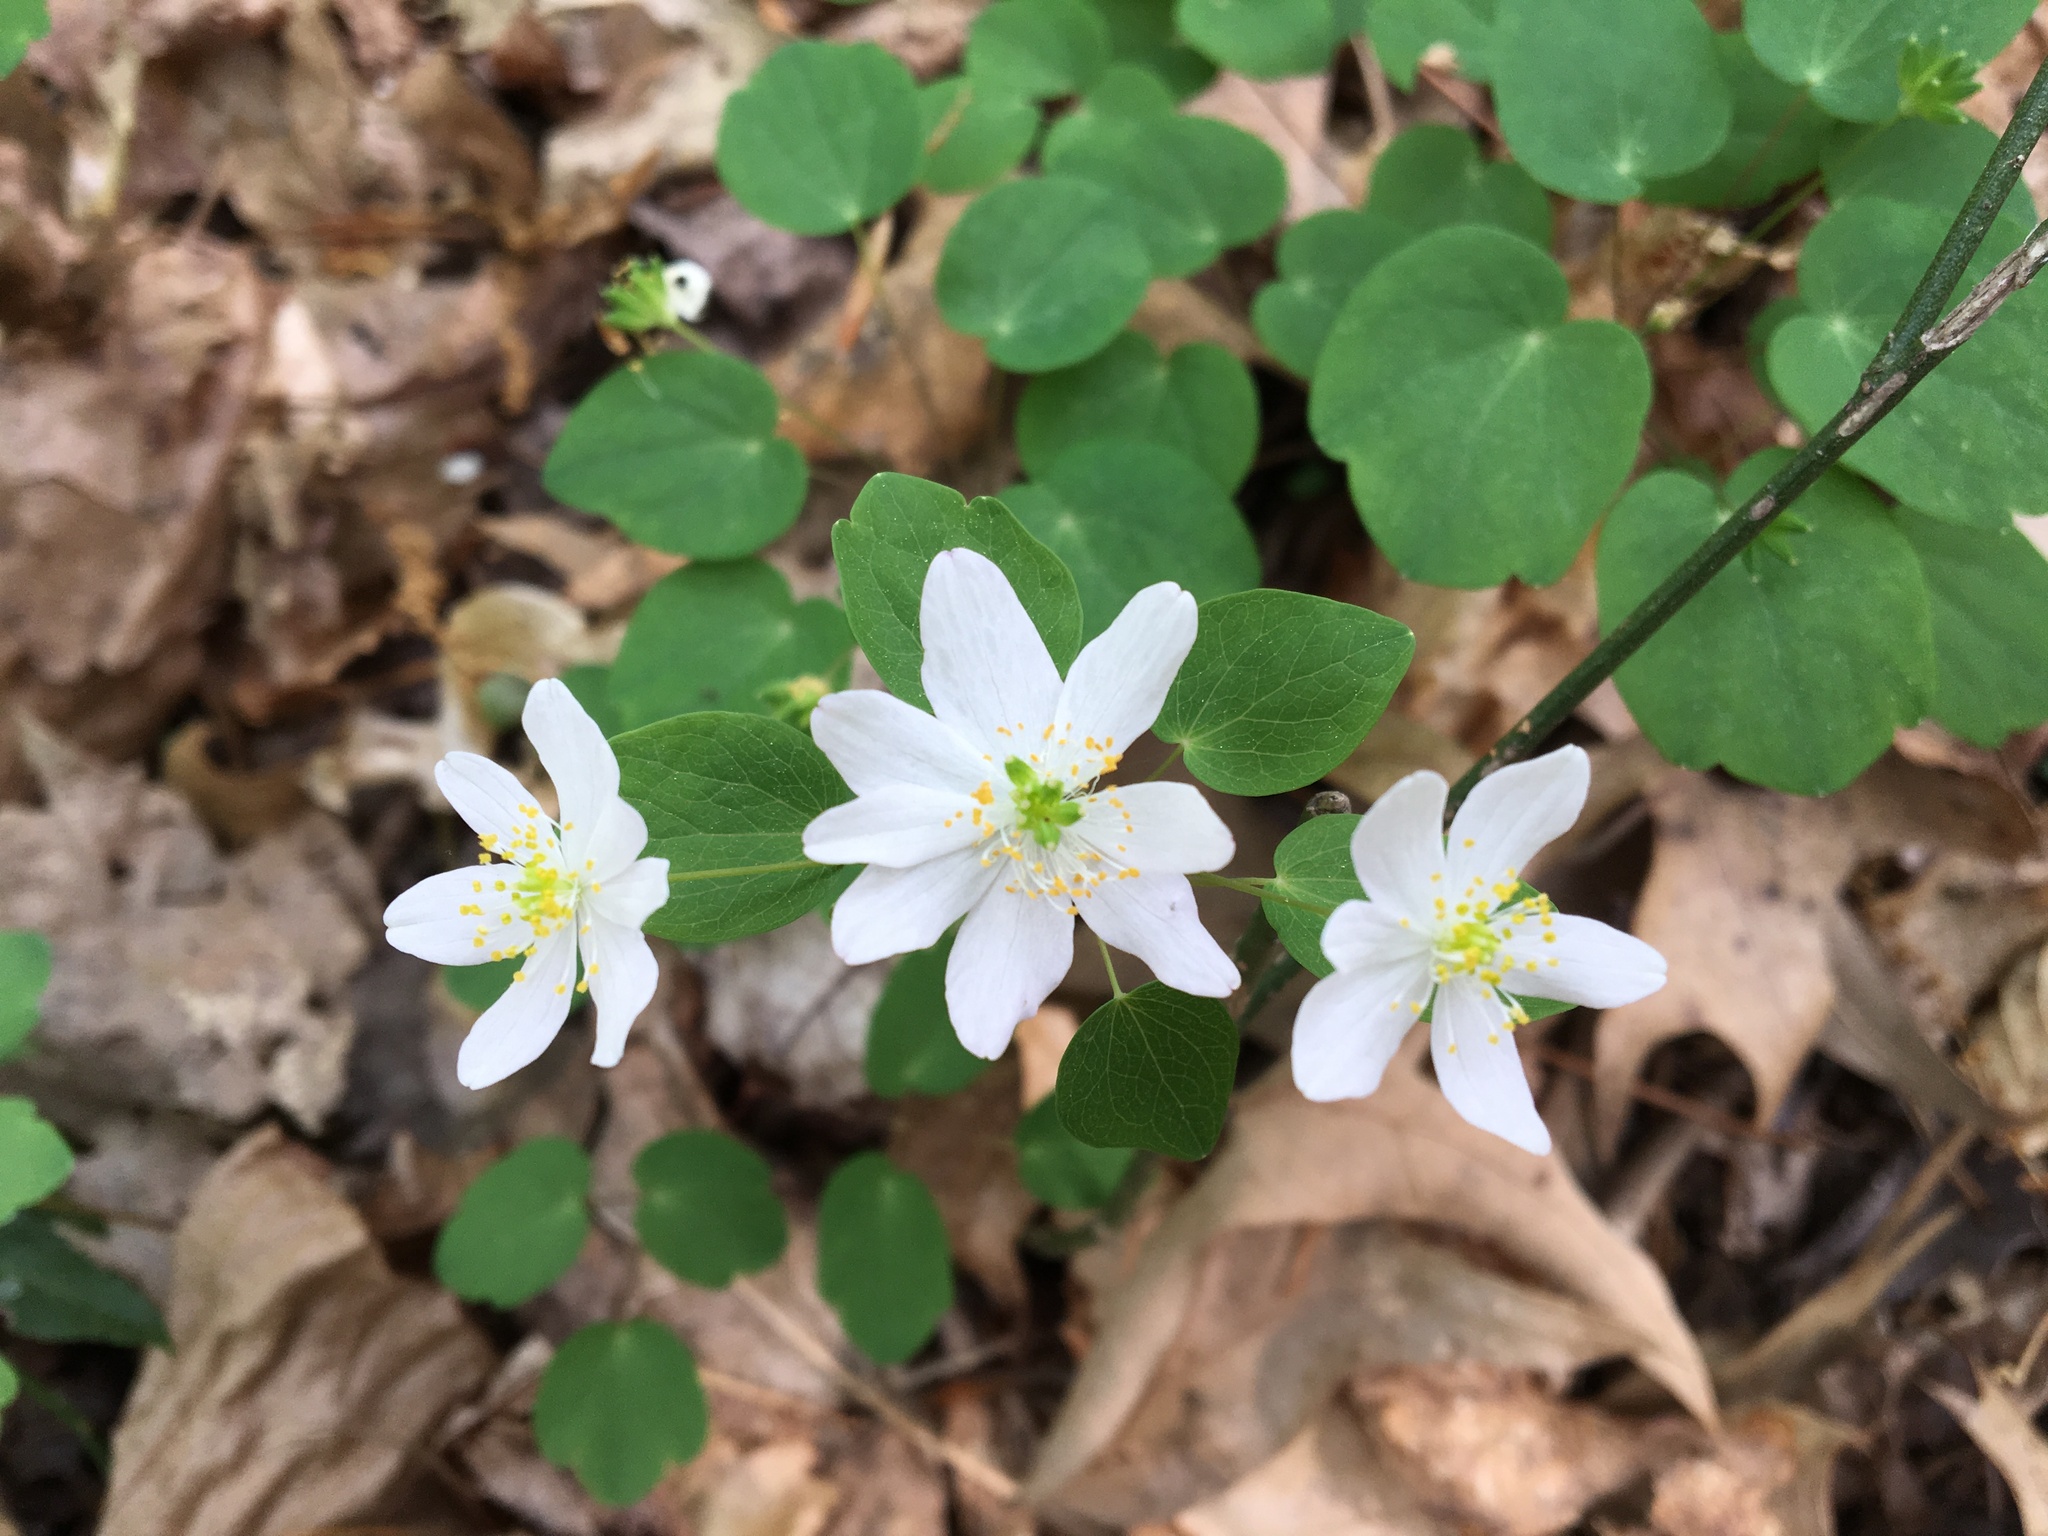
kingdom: Plantae
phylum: Tracheophyta
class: Magnoliopsida
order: Ranunculales
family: Ranunculaceae
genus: Thalictrum
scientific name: Thalictrum thalictroides
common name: Rue-anemone
